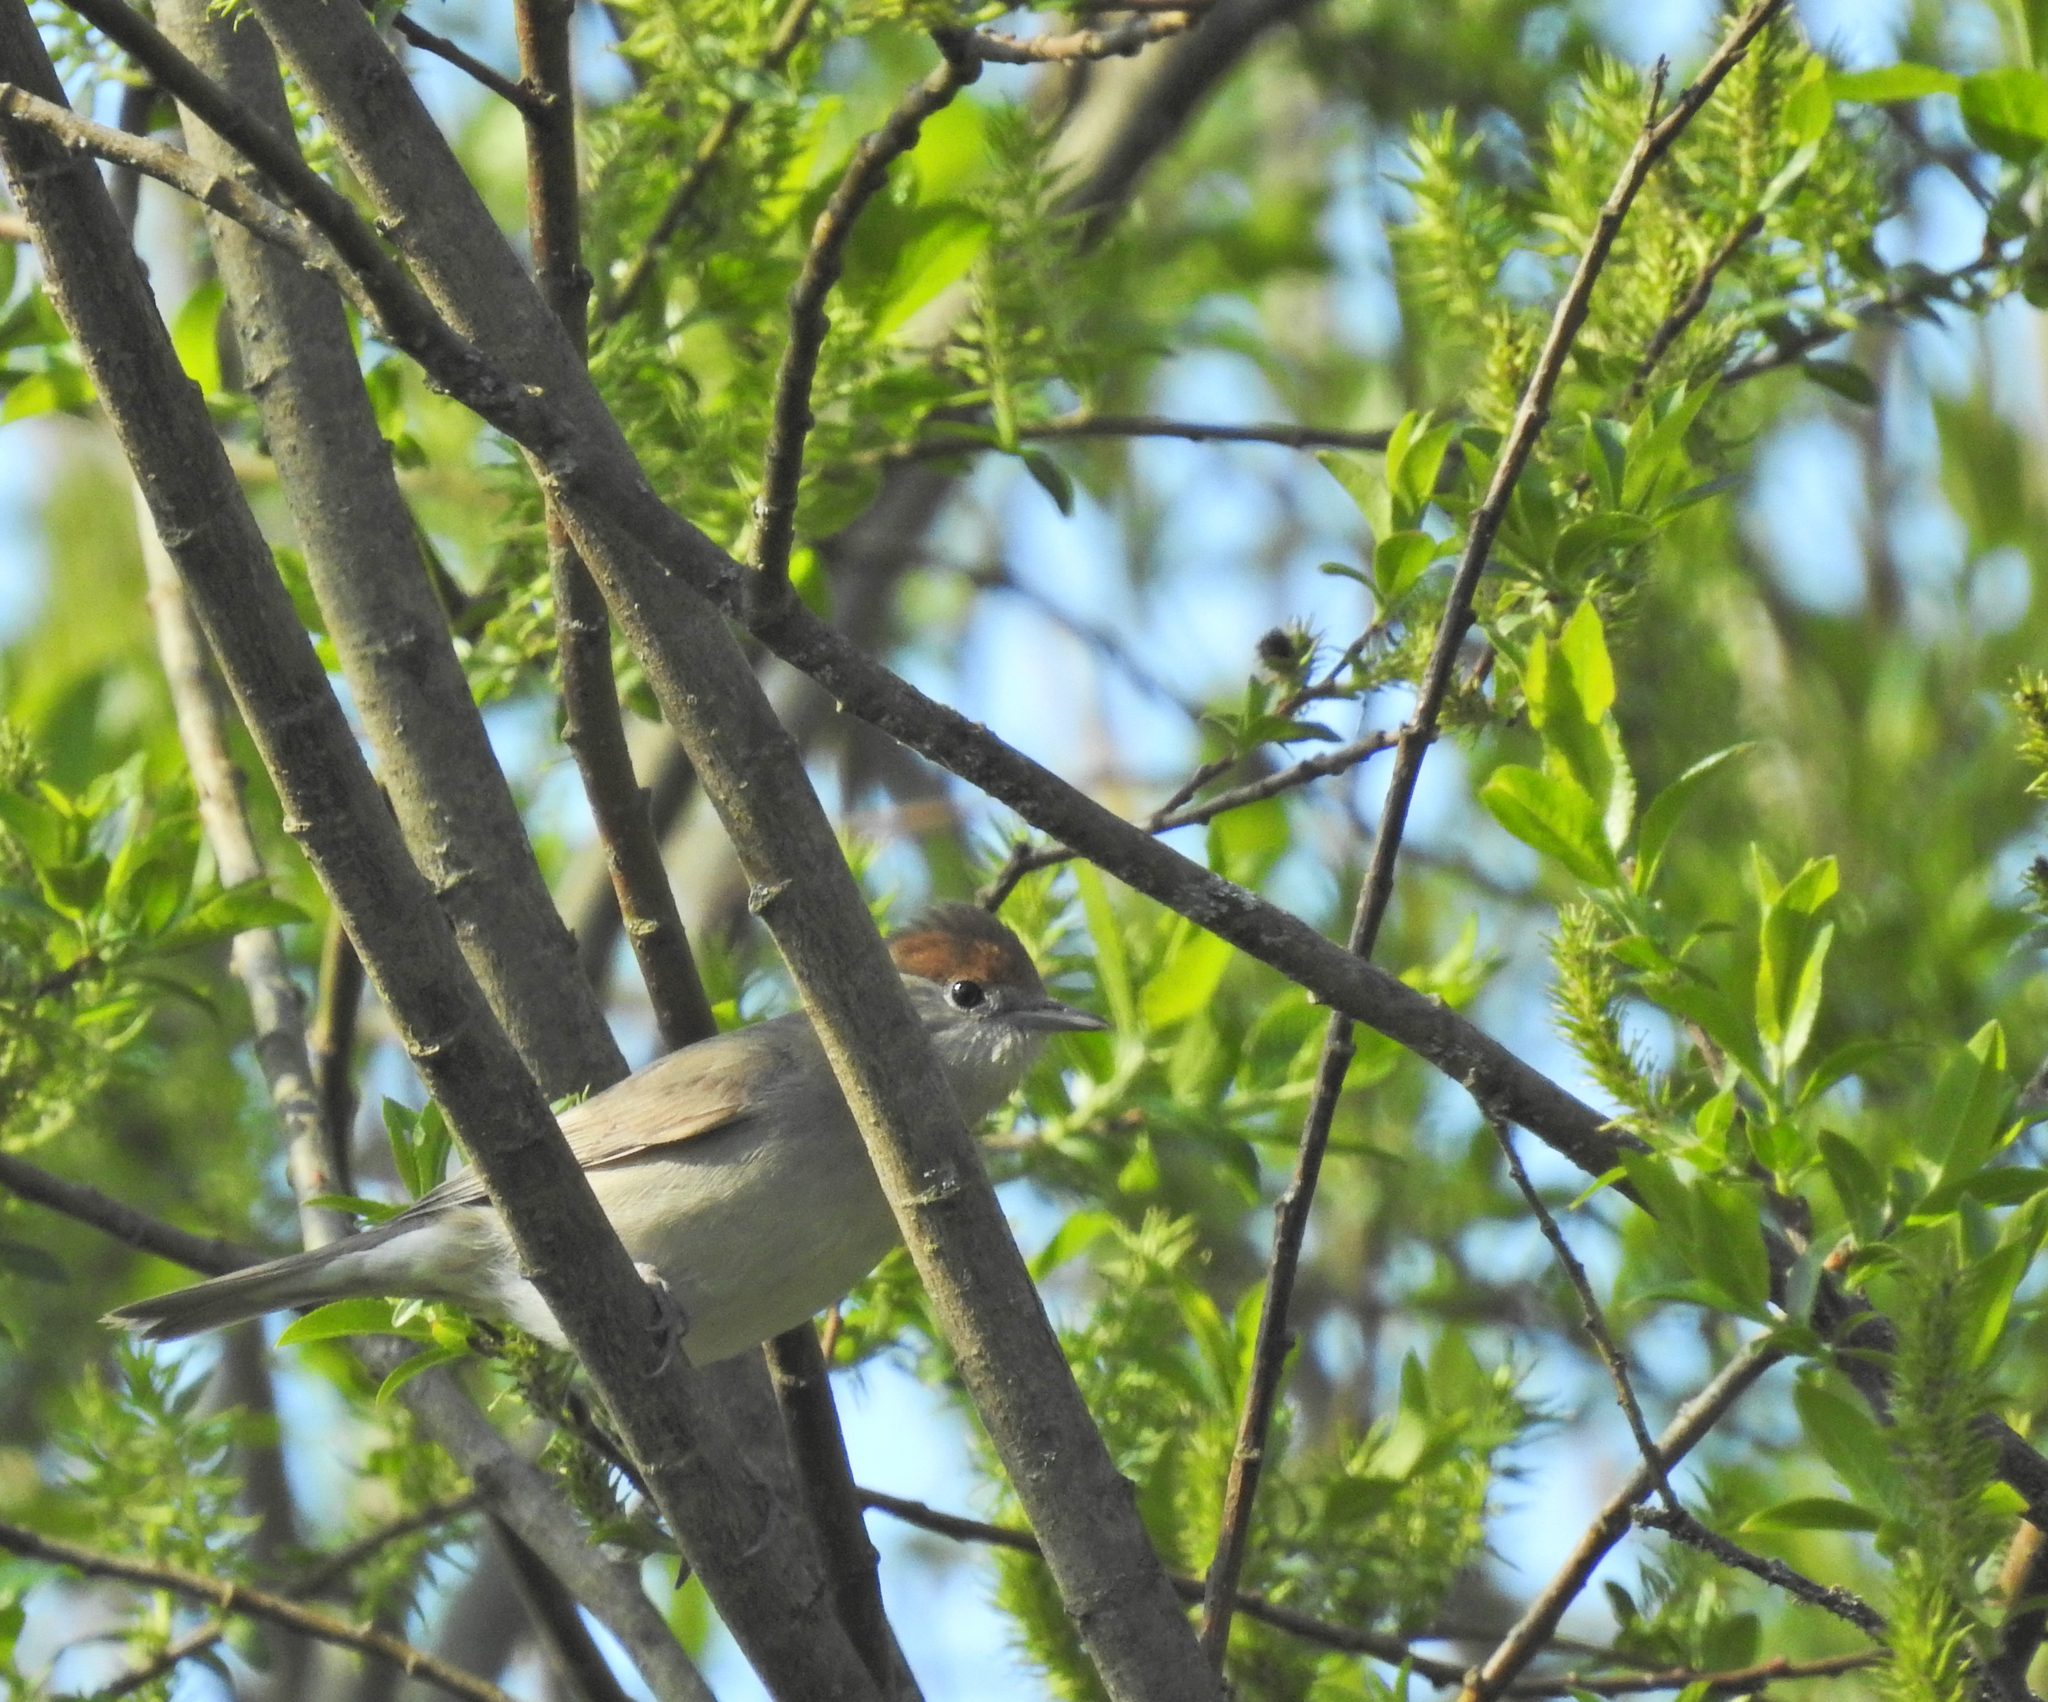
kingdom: Animalia
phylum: Chordata
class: Aves
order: Passeriformes
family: Sylviidae
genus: Sylvia
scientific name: Sylvia atricapilla
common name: Eurasian blackcap
